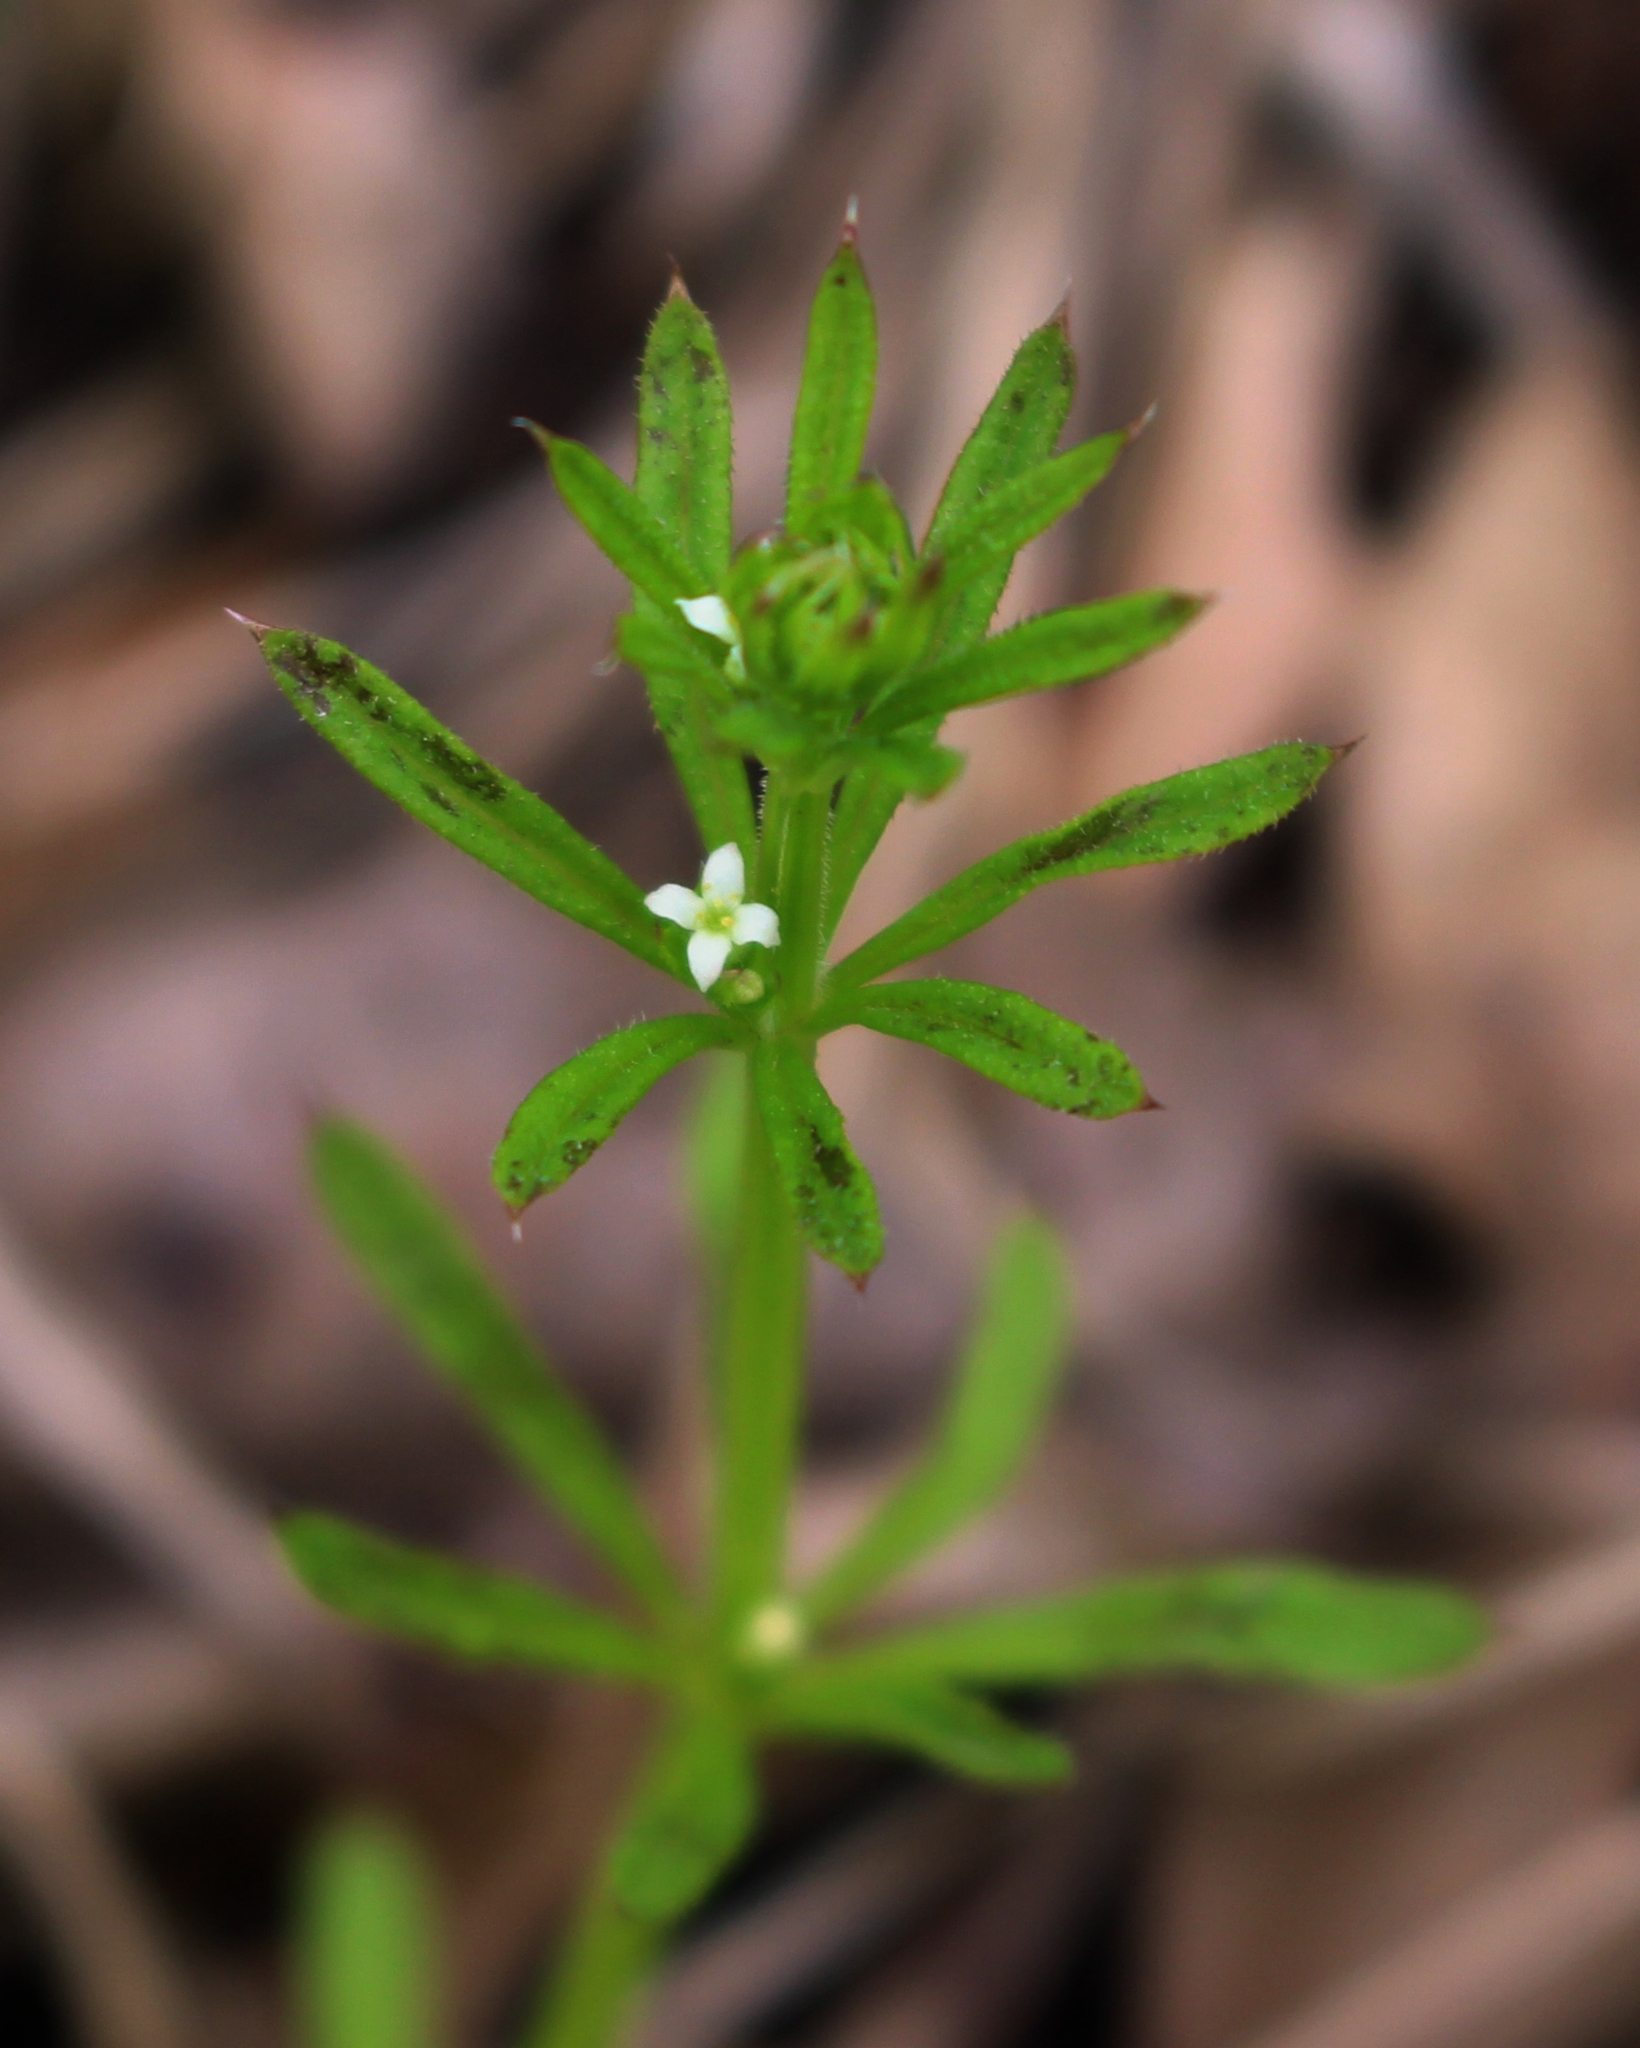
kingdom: Plantae
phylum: Tracheophyta
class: Magnoliopsida
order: Gentianales
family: Rubiaceae
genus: Galium
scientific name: Galium aparine
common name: Cleavers
